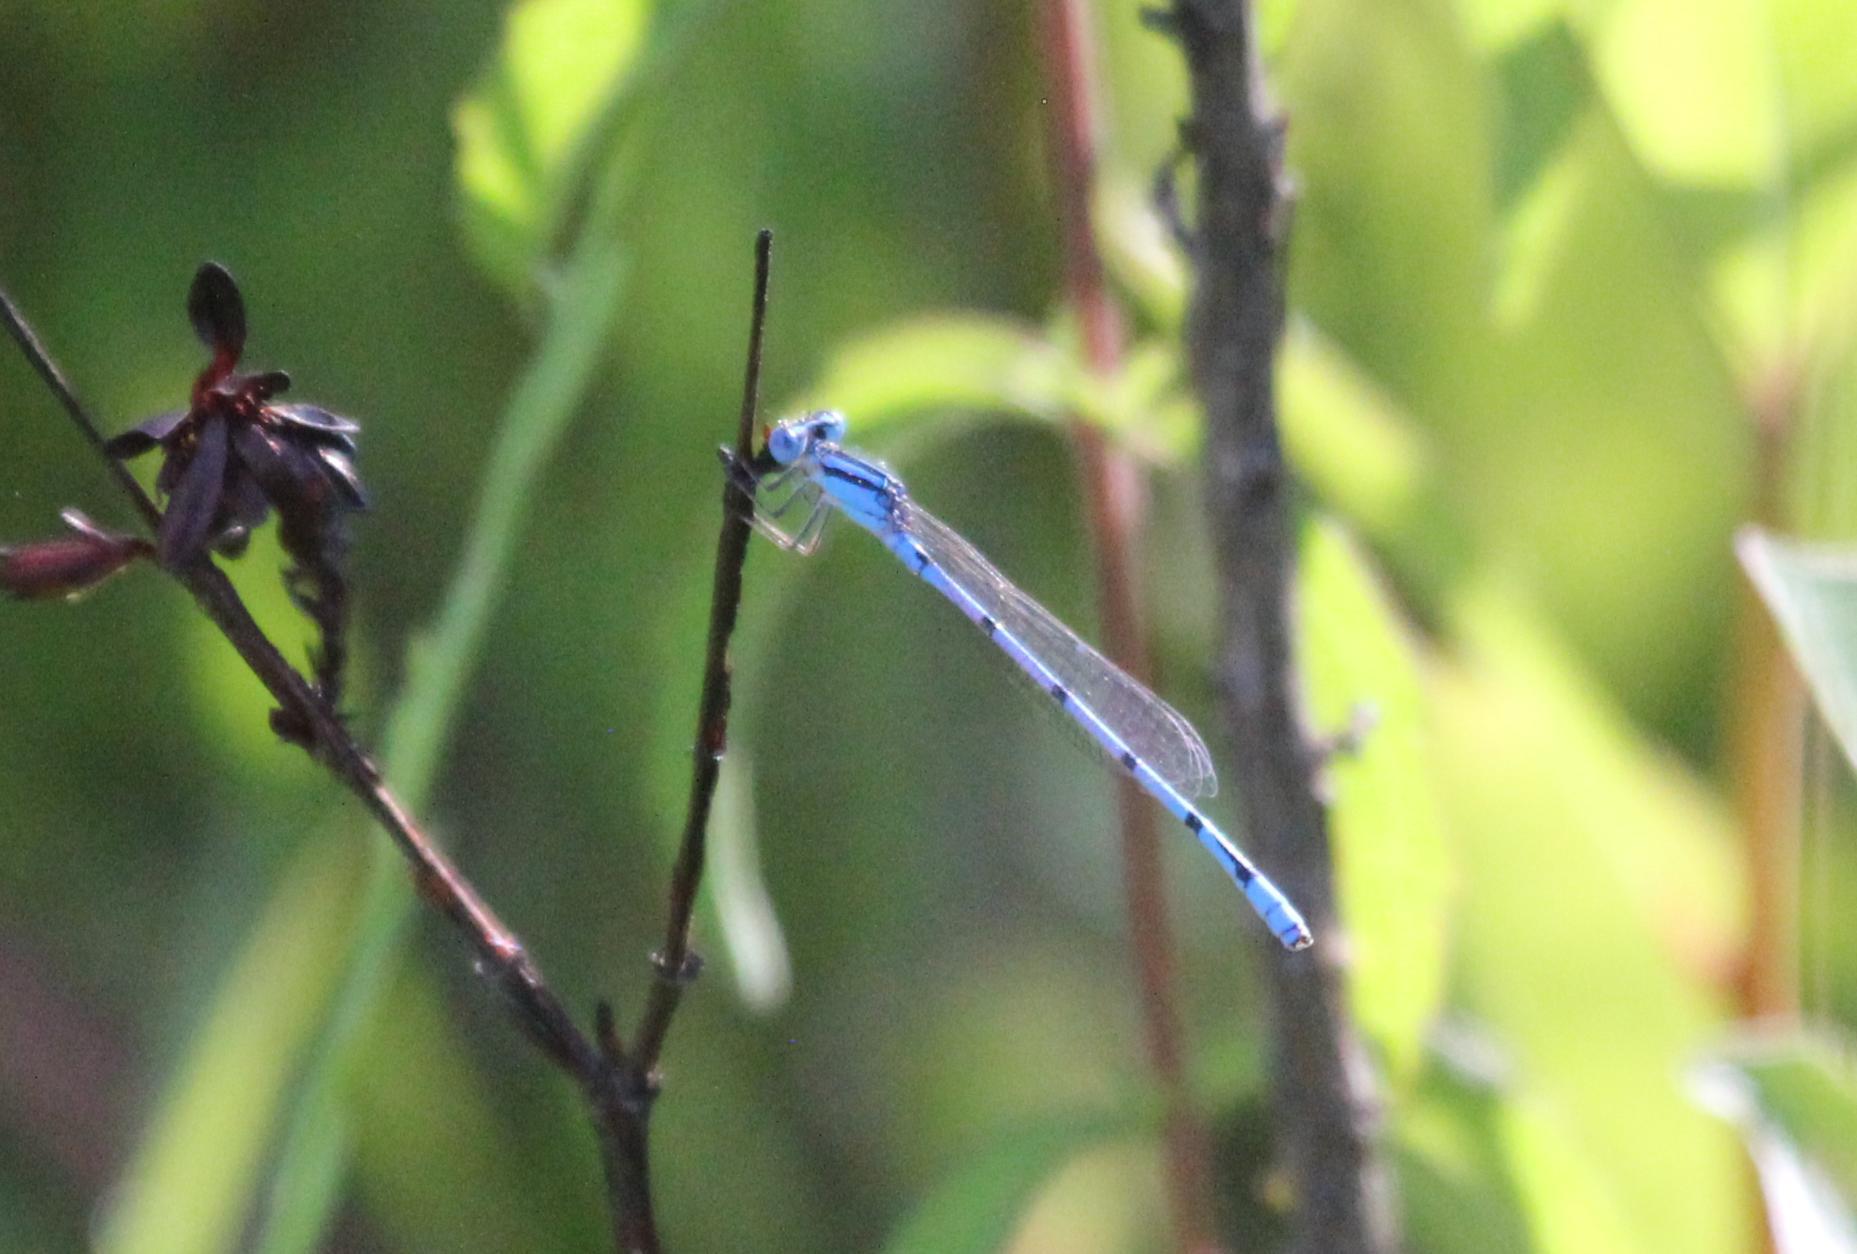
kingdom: Animalia
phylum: Arthropoda
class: Insecta
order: Odonata
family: Coenagrionidae
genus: Enallagma
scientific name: Enallagma doubledayi
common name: Atlantic bluet
